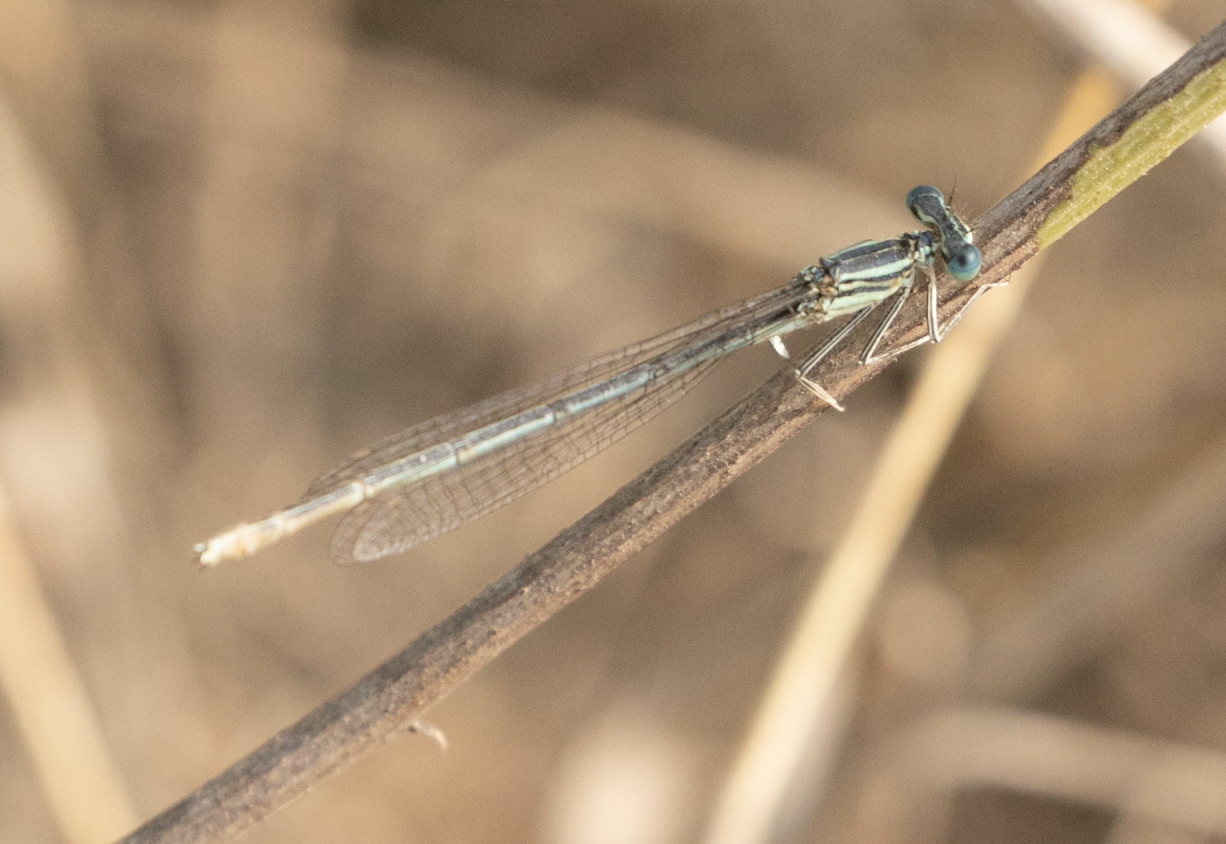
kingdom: Animalia
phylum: Arthropoda
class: Insecta
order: Odonata
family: Platycnemididae
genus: Platycnemis
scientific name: Platycnemis pennipes
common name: White-legged damselfly
